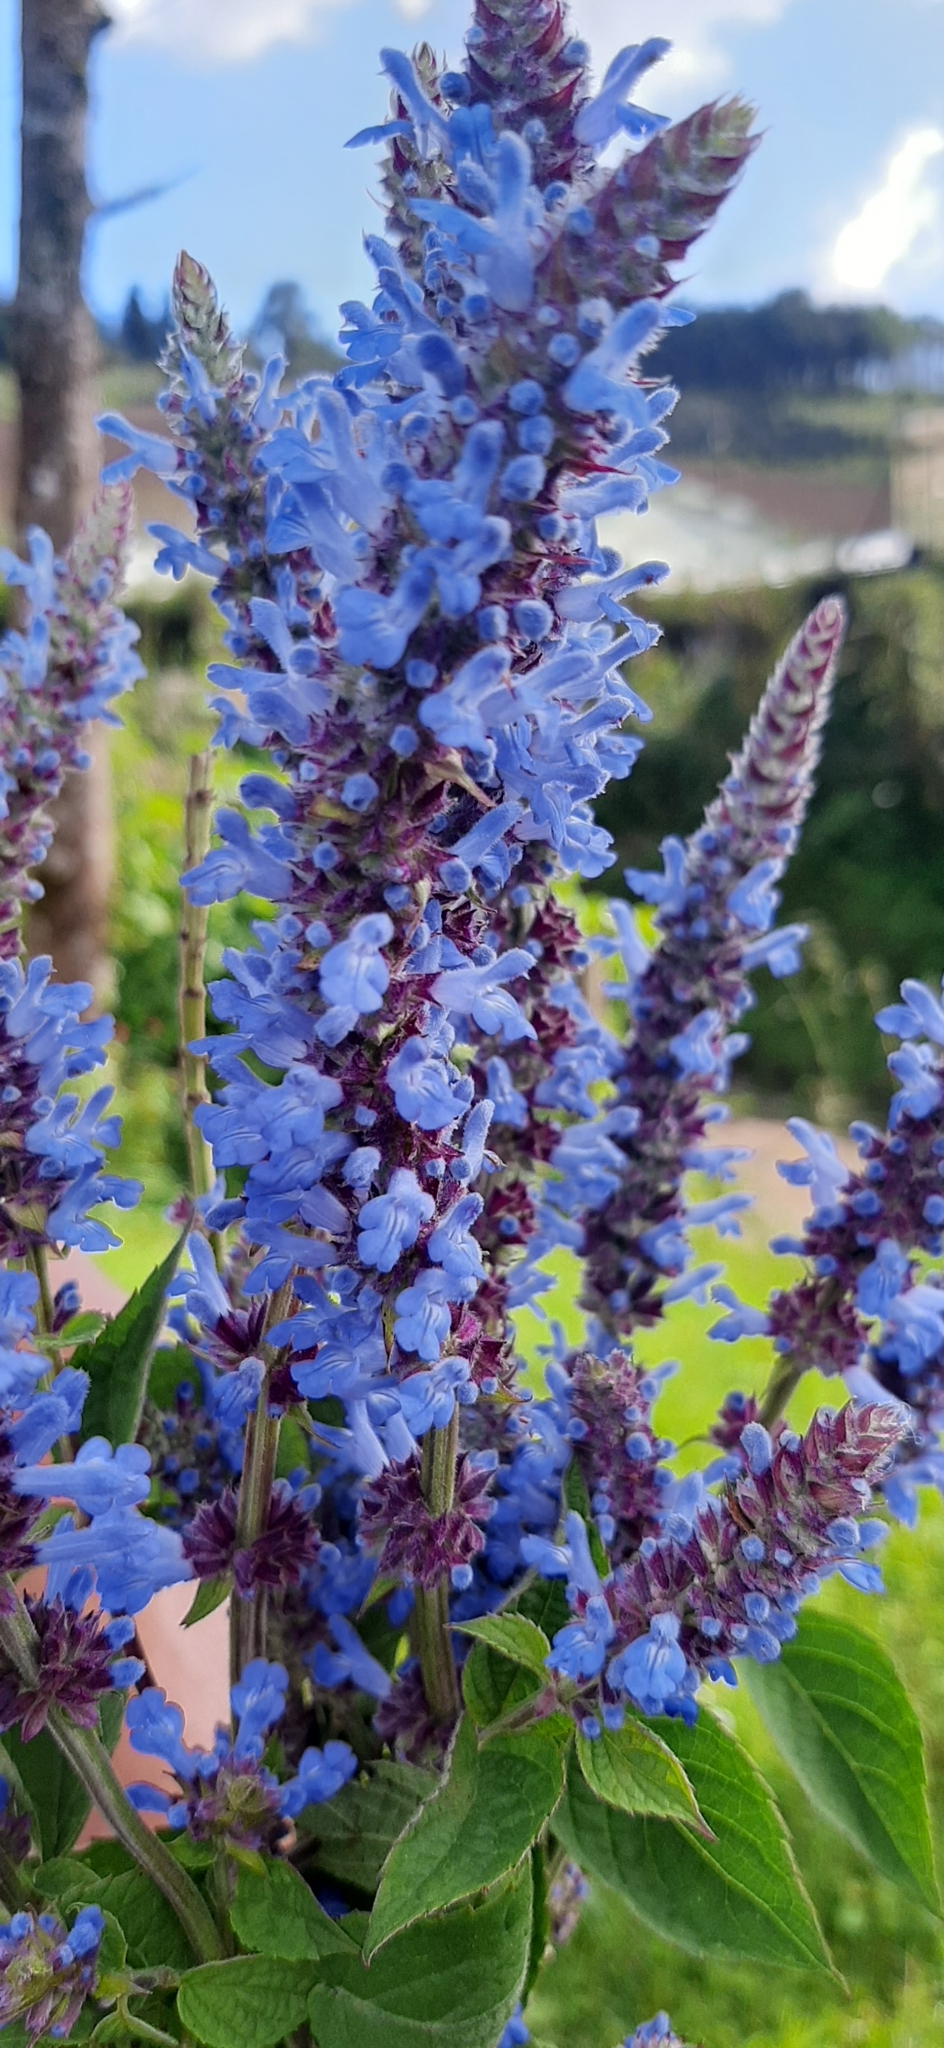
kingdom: Plantae
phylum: Tracheophyta
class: Magnoliopsida
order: Lamiales
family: Lamiaceae
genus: Salvia
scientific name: Salvia polystachia
